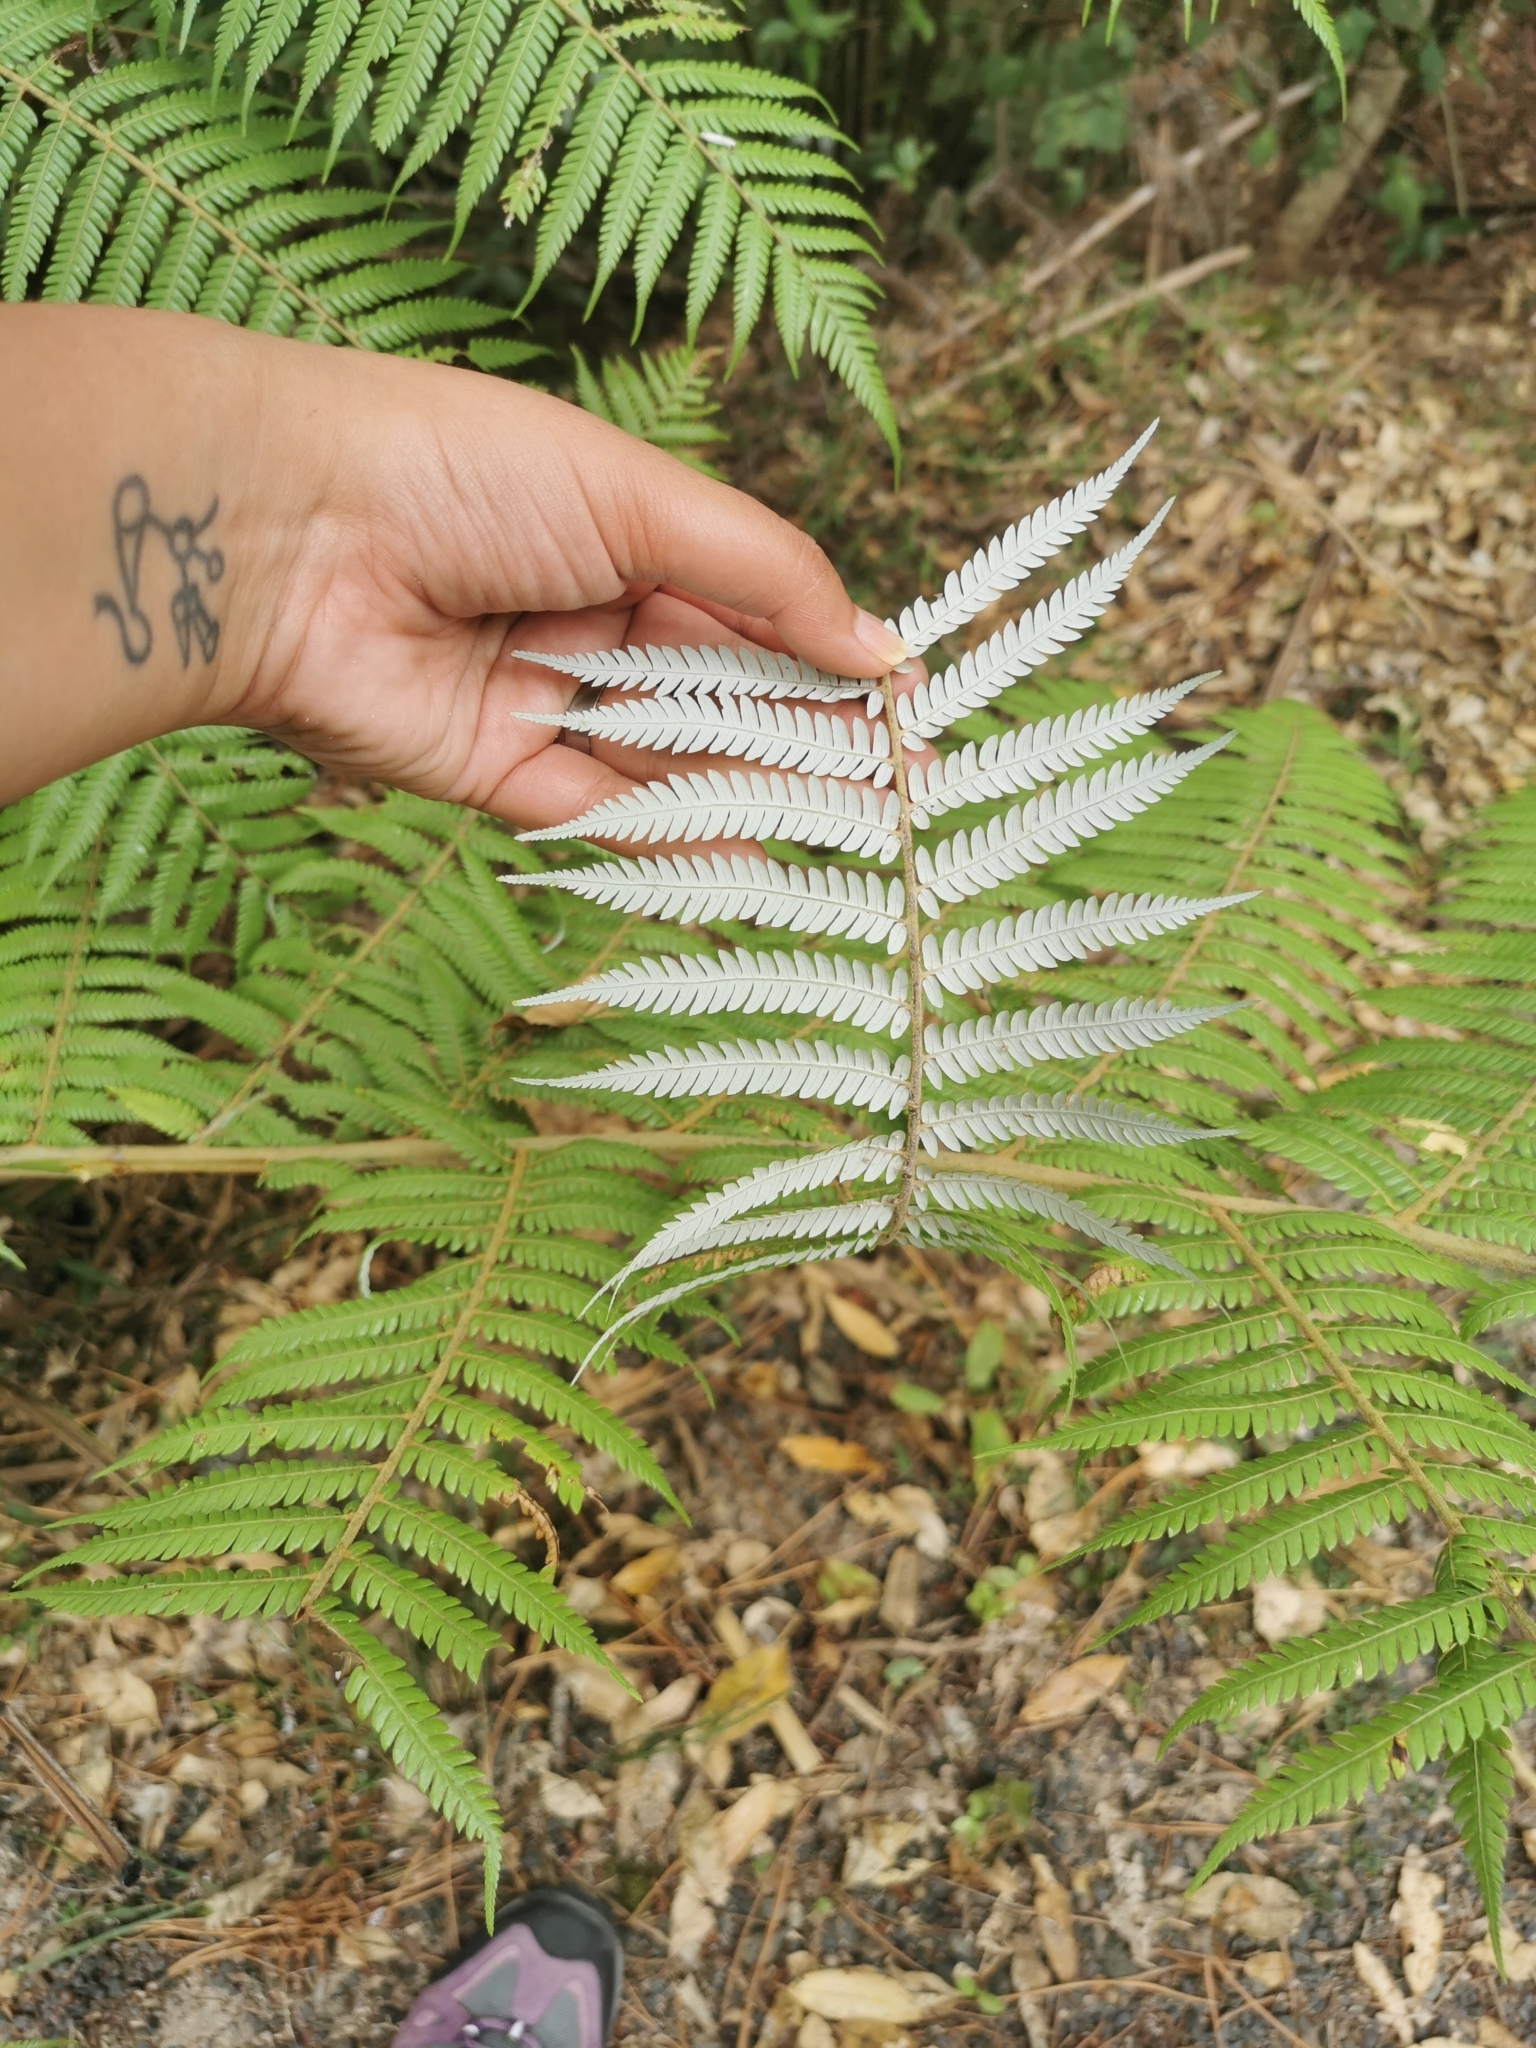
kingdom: Plantae
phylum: Tracheophyta
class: Polypodiopsida
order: Cyatheales
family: Cyatheaceae
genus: Alsophila
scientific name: Alsophila dealbata
